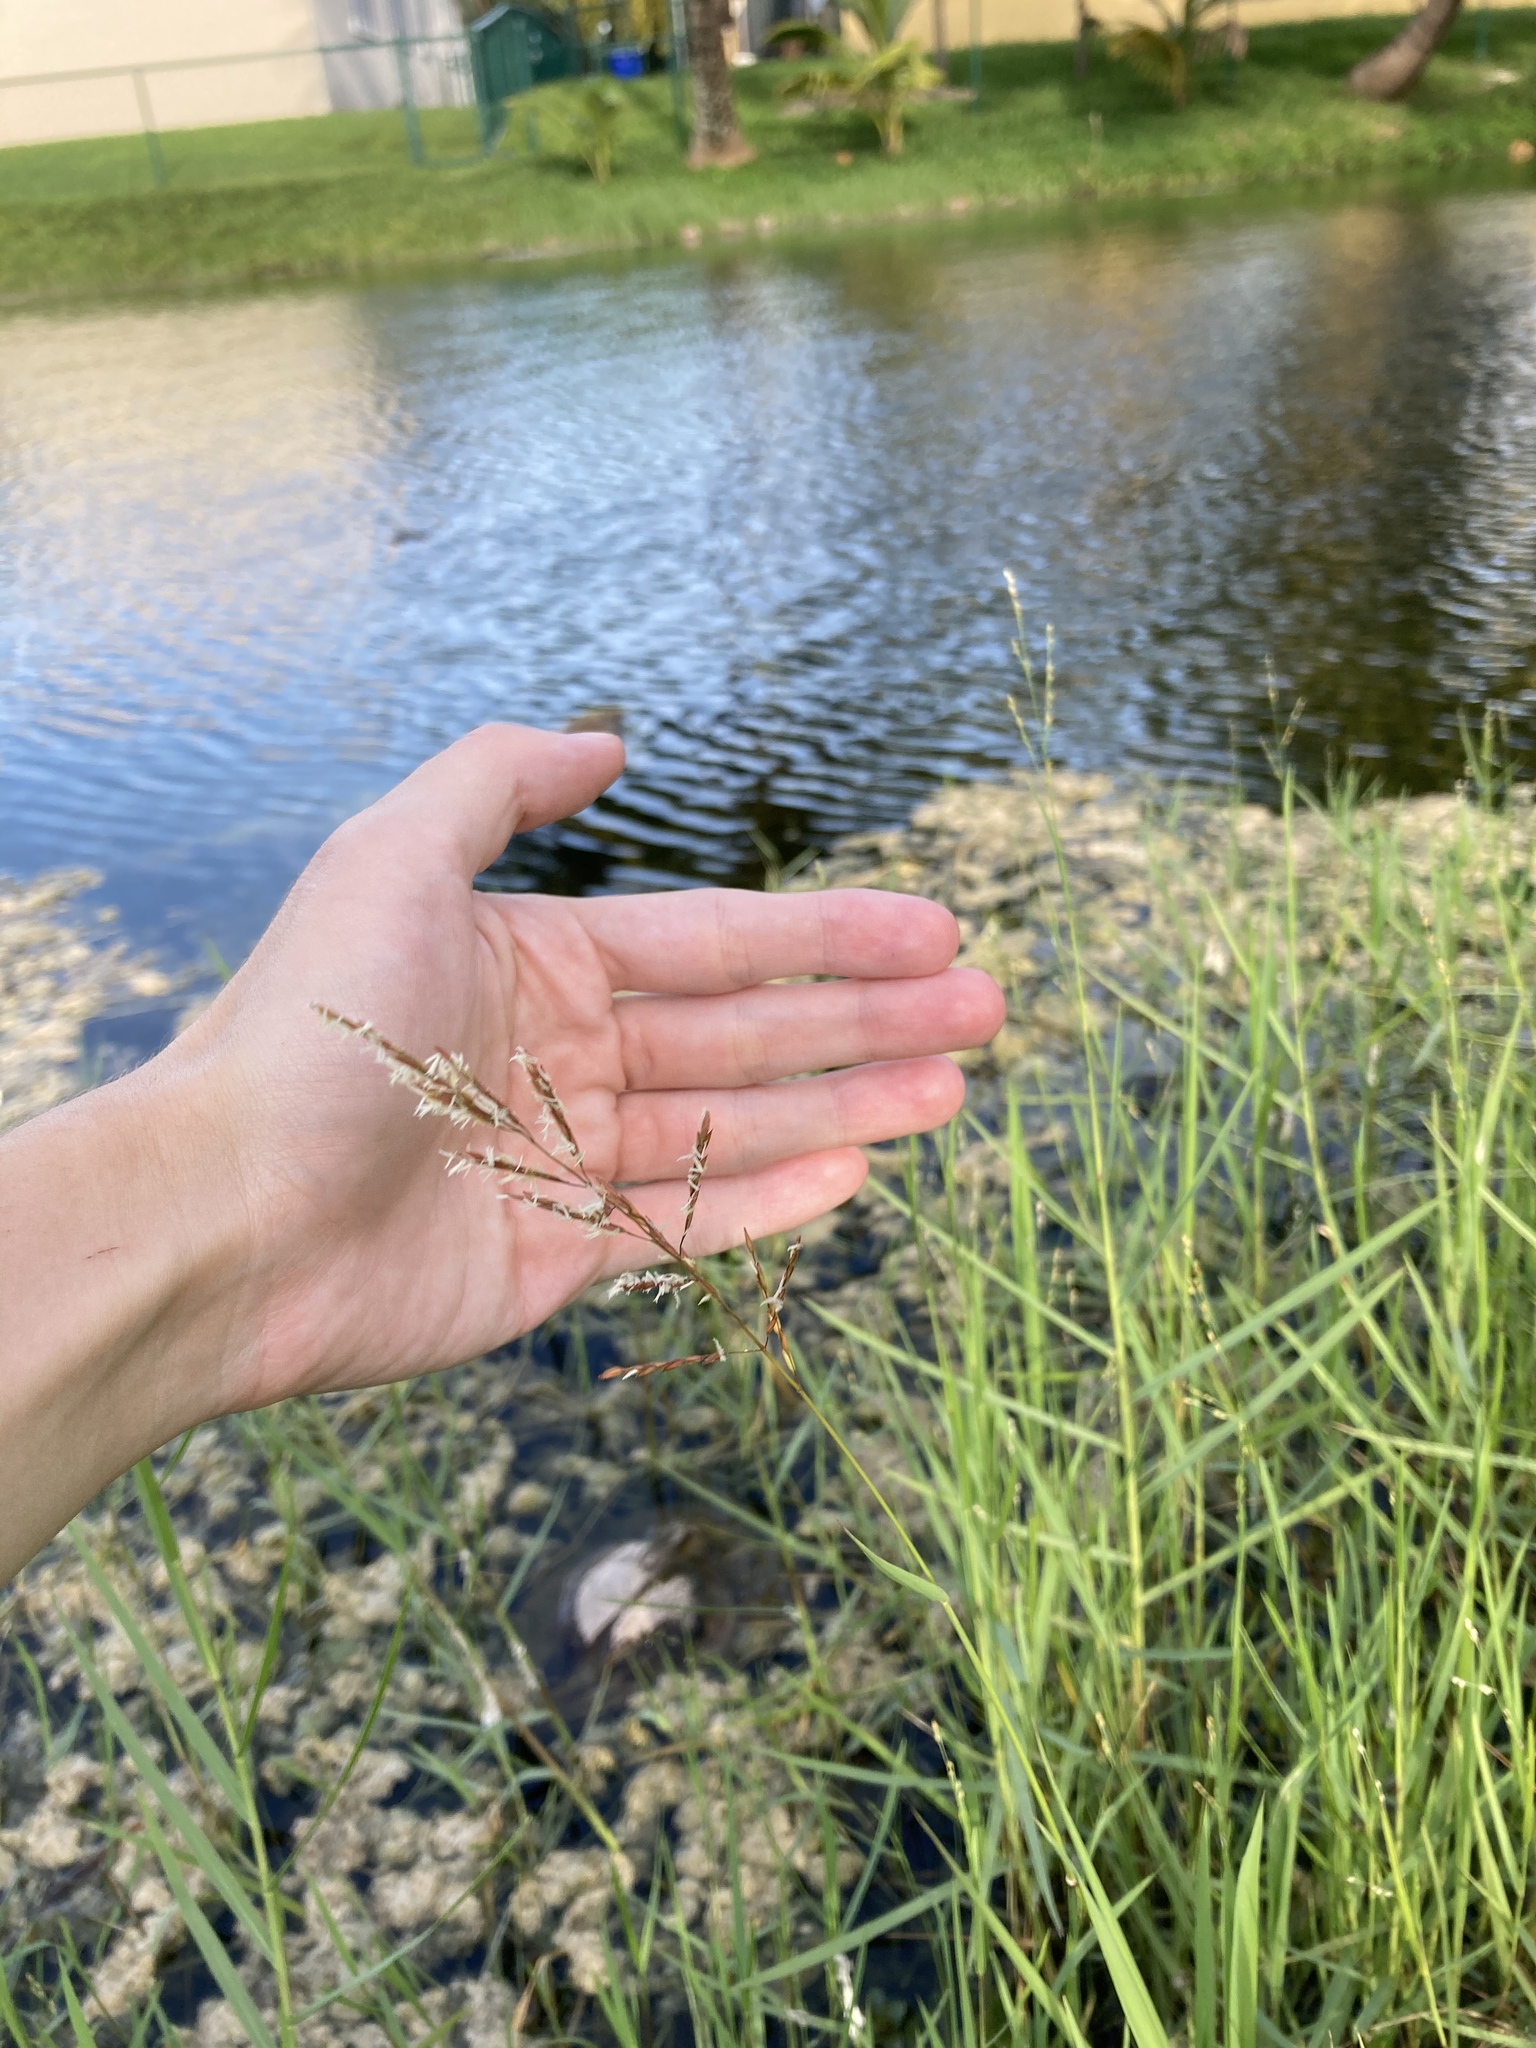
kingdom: Plantae
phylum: Tracheophyta
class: Liliopsida
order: Poales
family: Poaceae
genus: Leersia
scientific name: Leersia hexandra
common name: Southern cut grass
